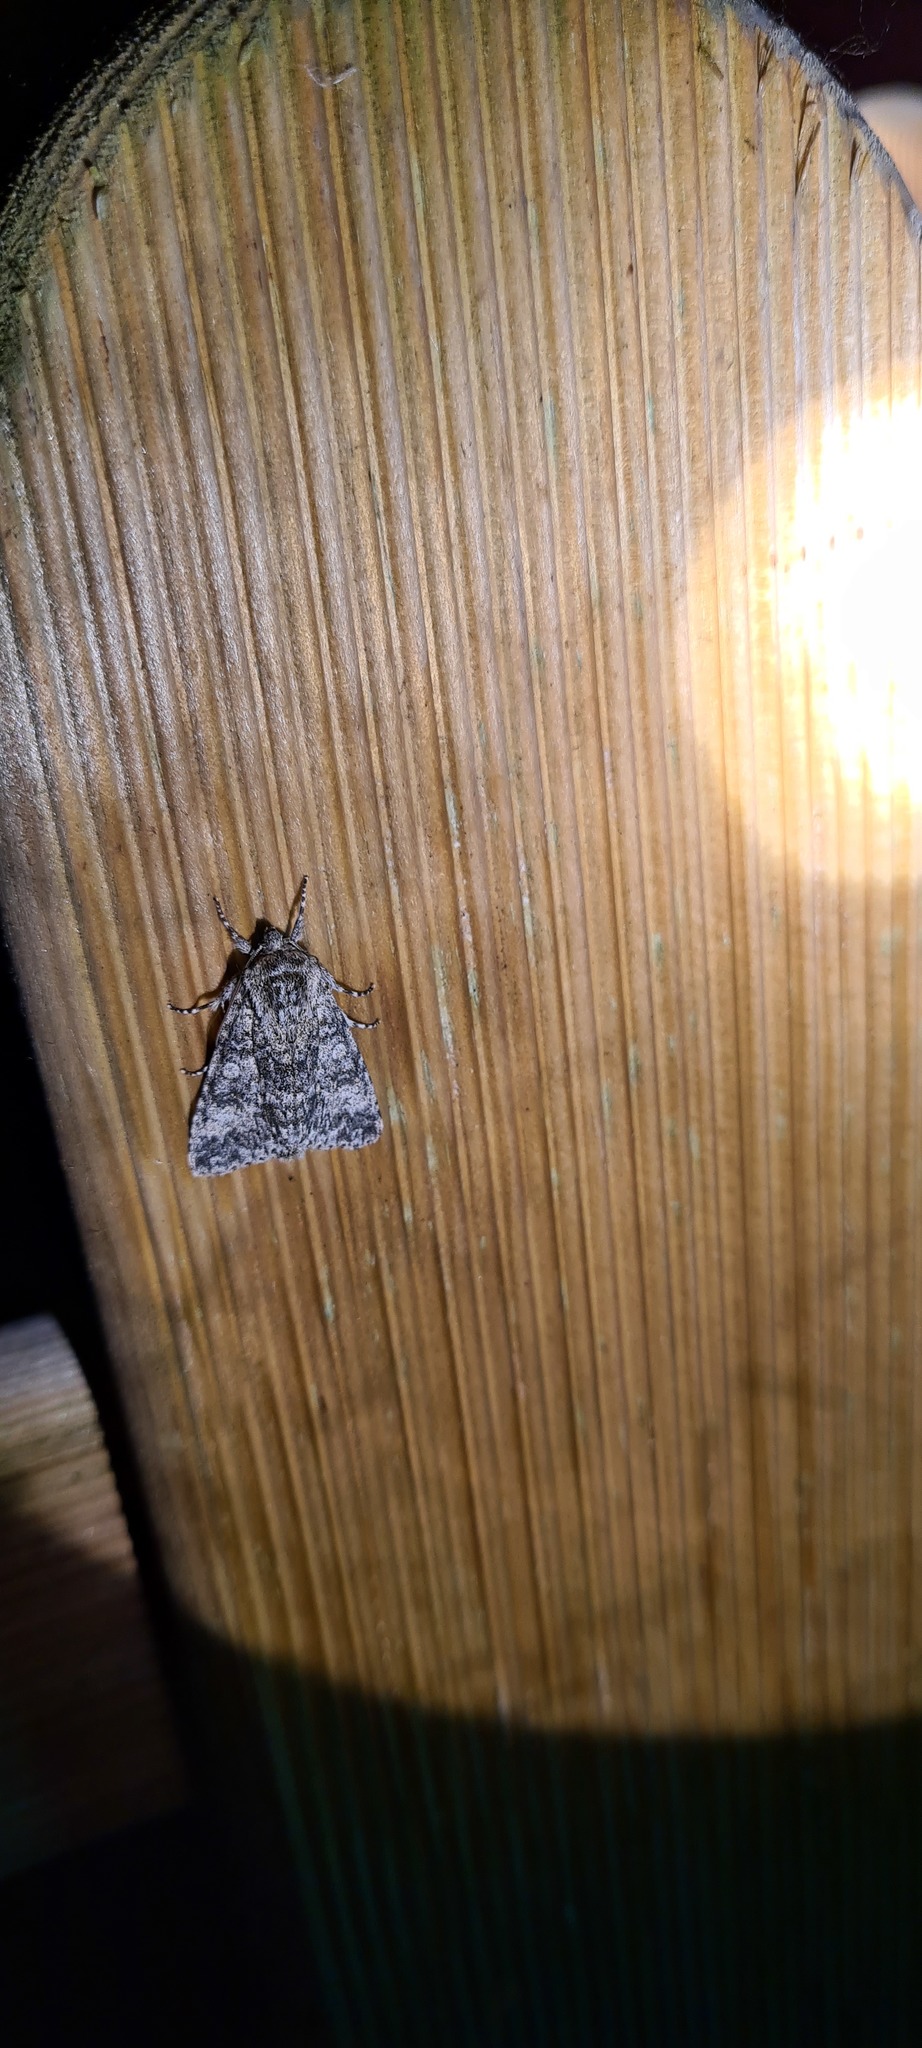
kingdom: Animalia
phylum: Arthropoda
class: Insecta
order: Lepidoptera
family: Noctuidae
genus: Acronicta
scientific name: Acronicta megacephala
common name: Poplar grey
